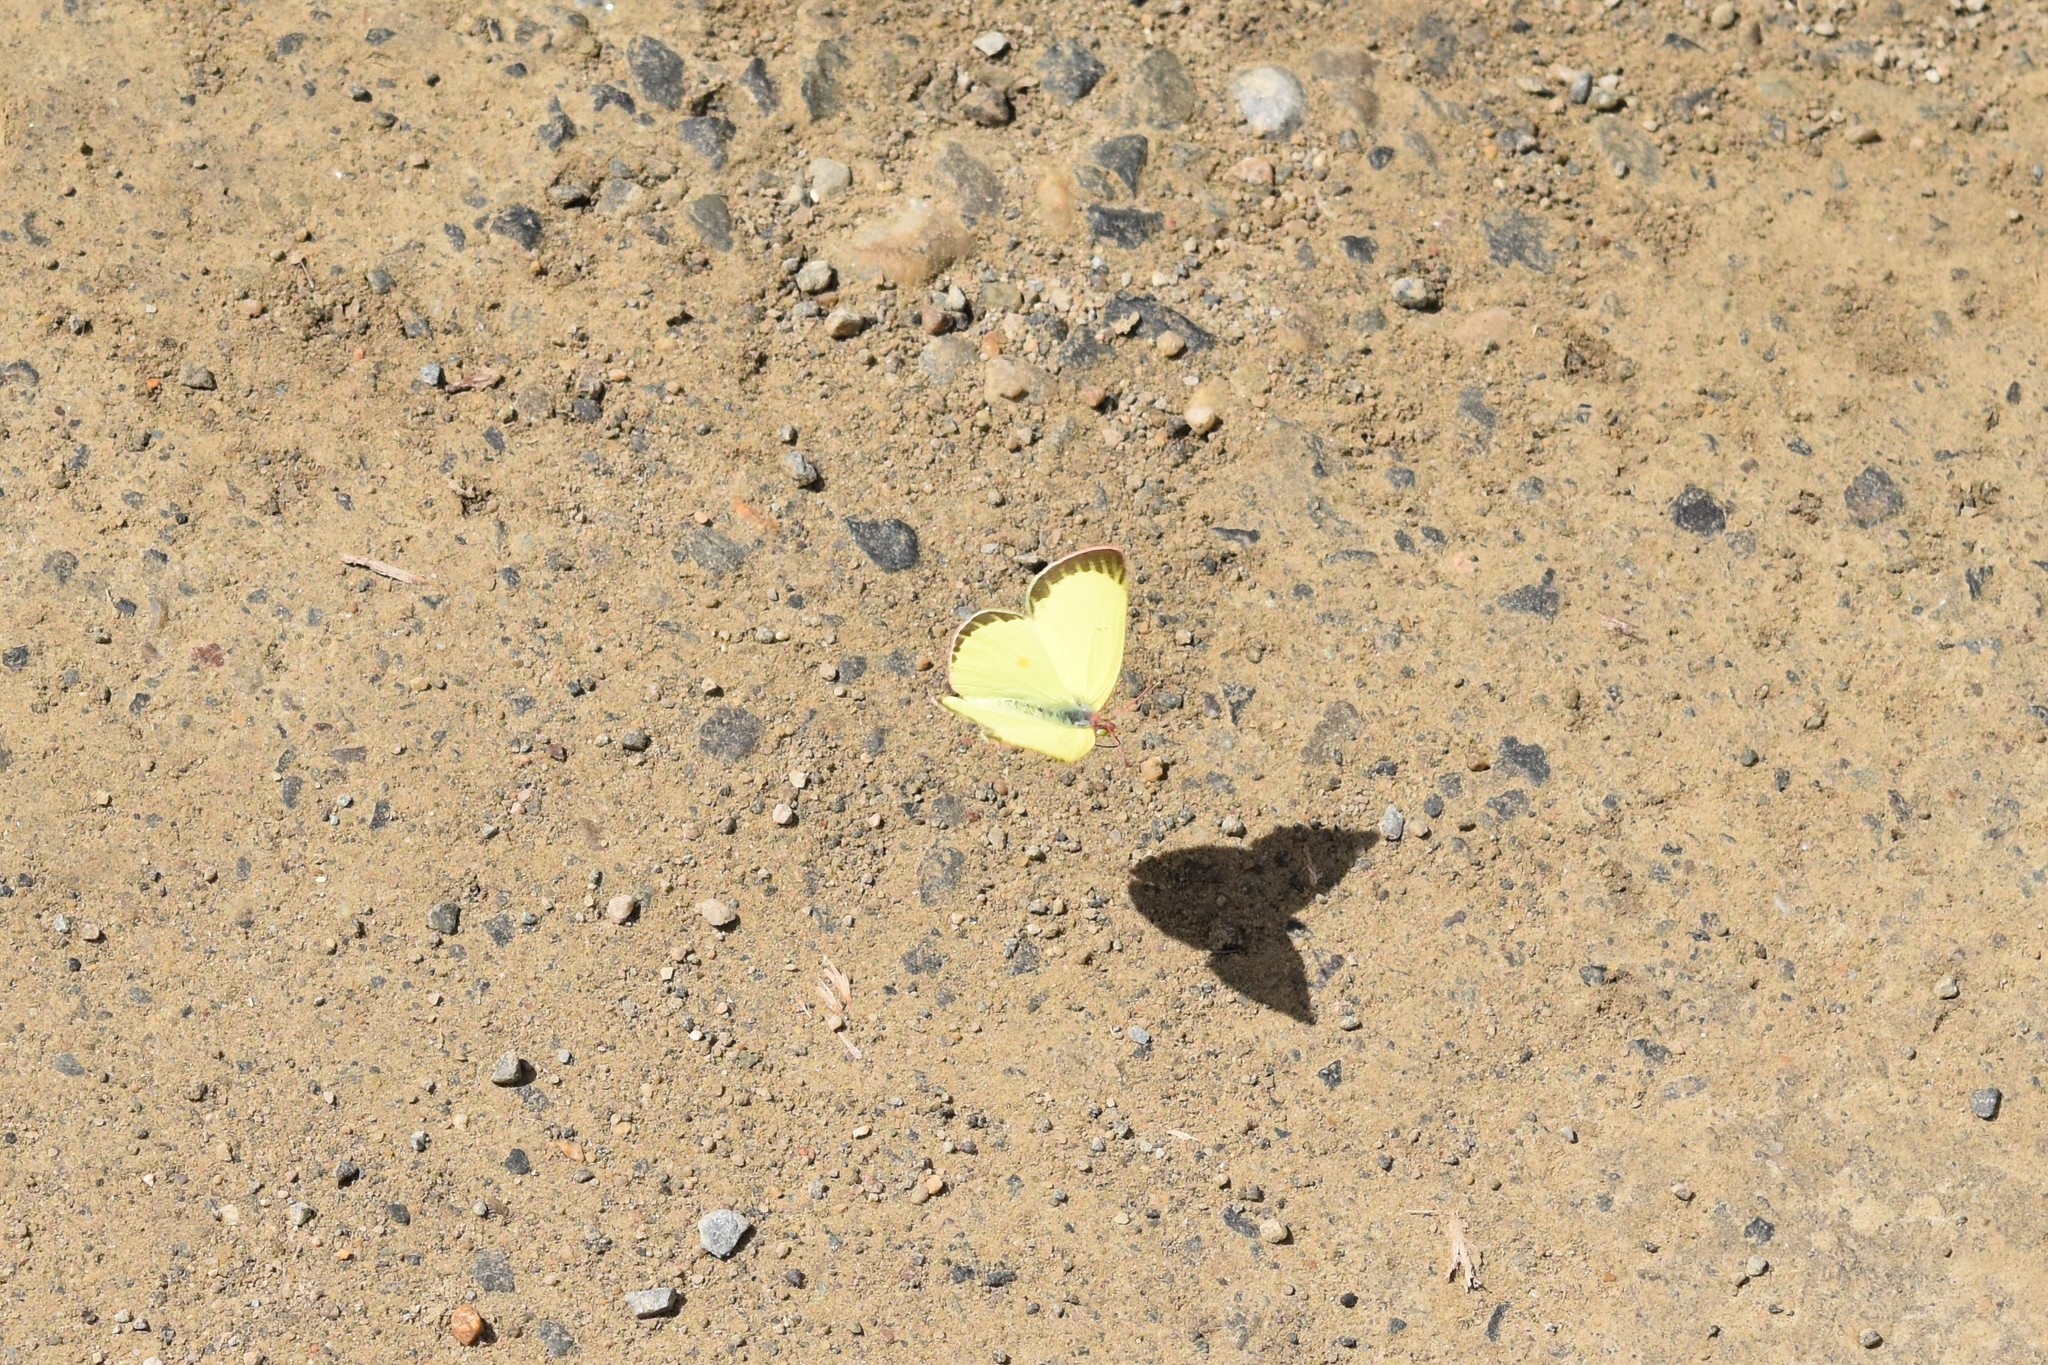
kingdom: Animalia
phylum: Arthropoda
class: Insecta
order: Lepidoptera
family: Pieridae
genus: Colias
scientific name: Colias interior
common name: Pink-edged sulphur
